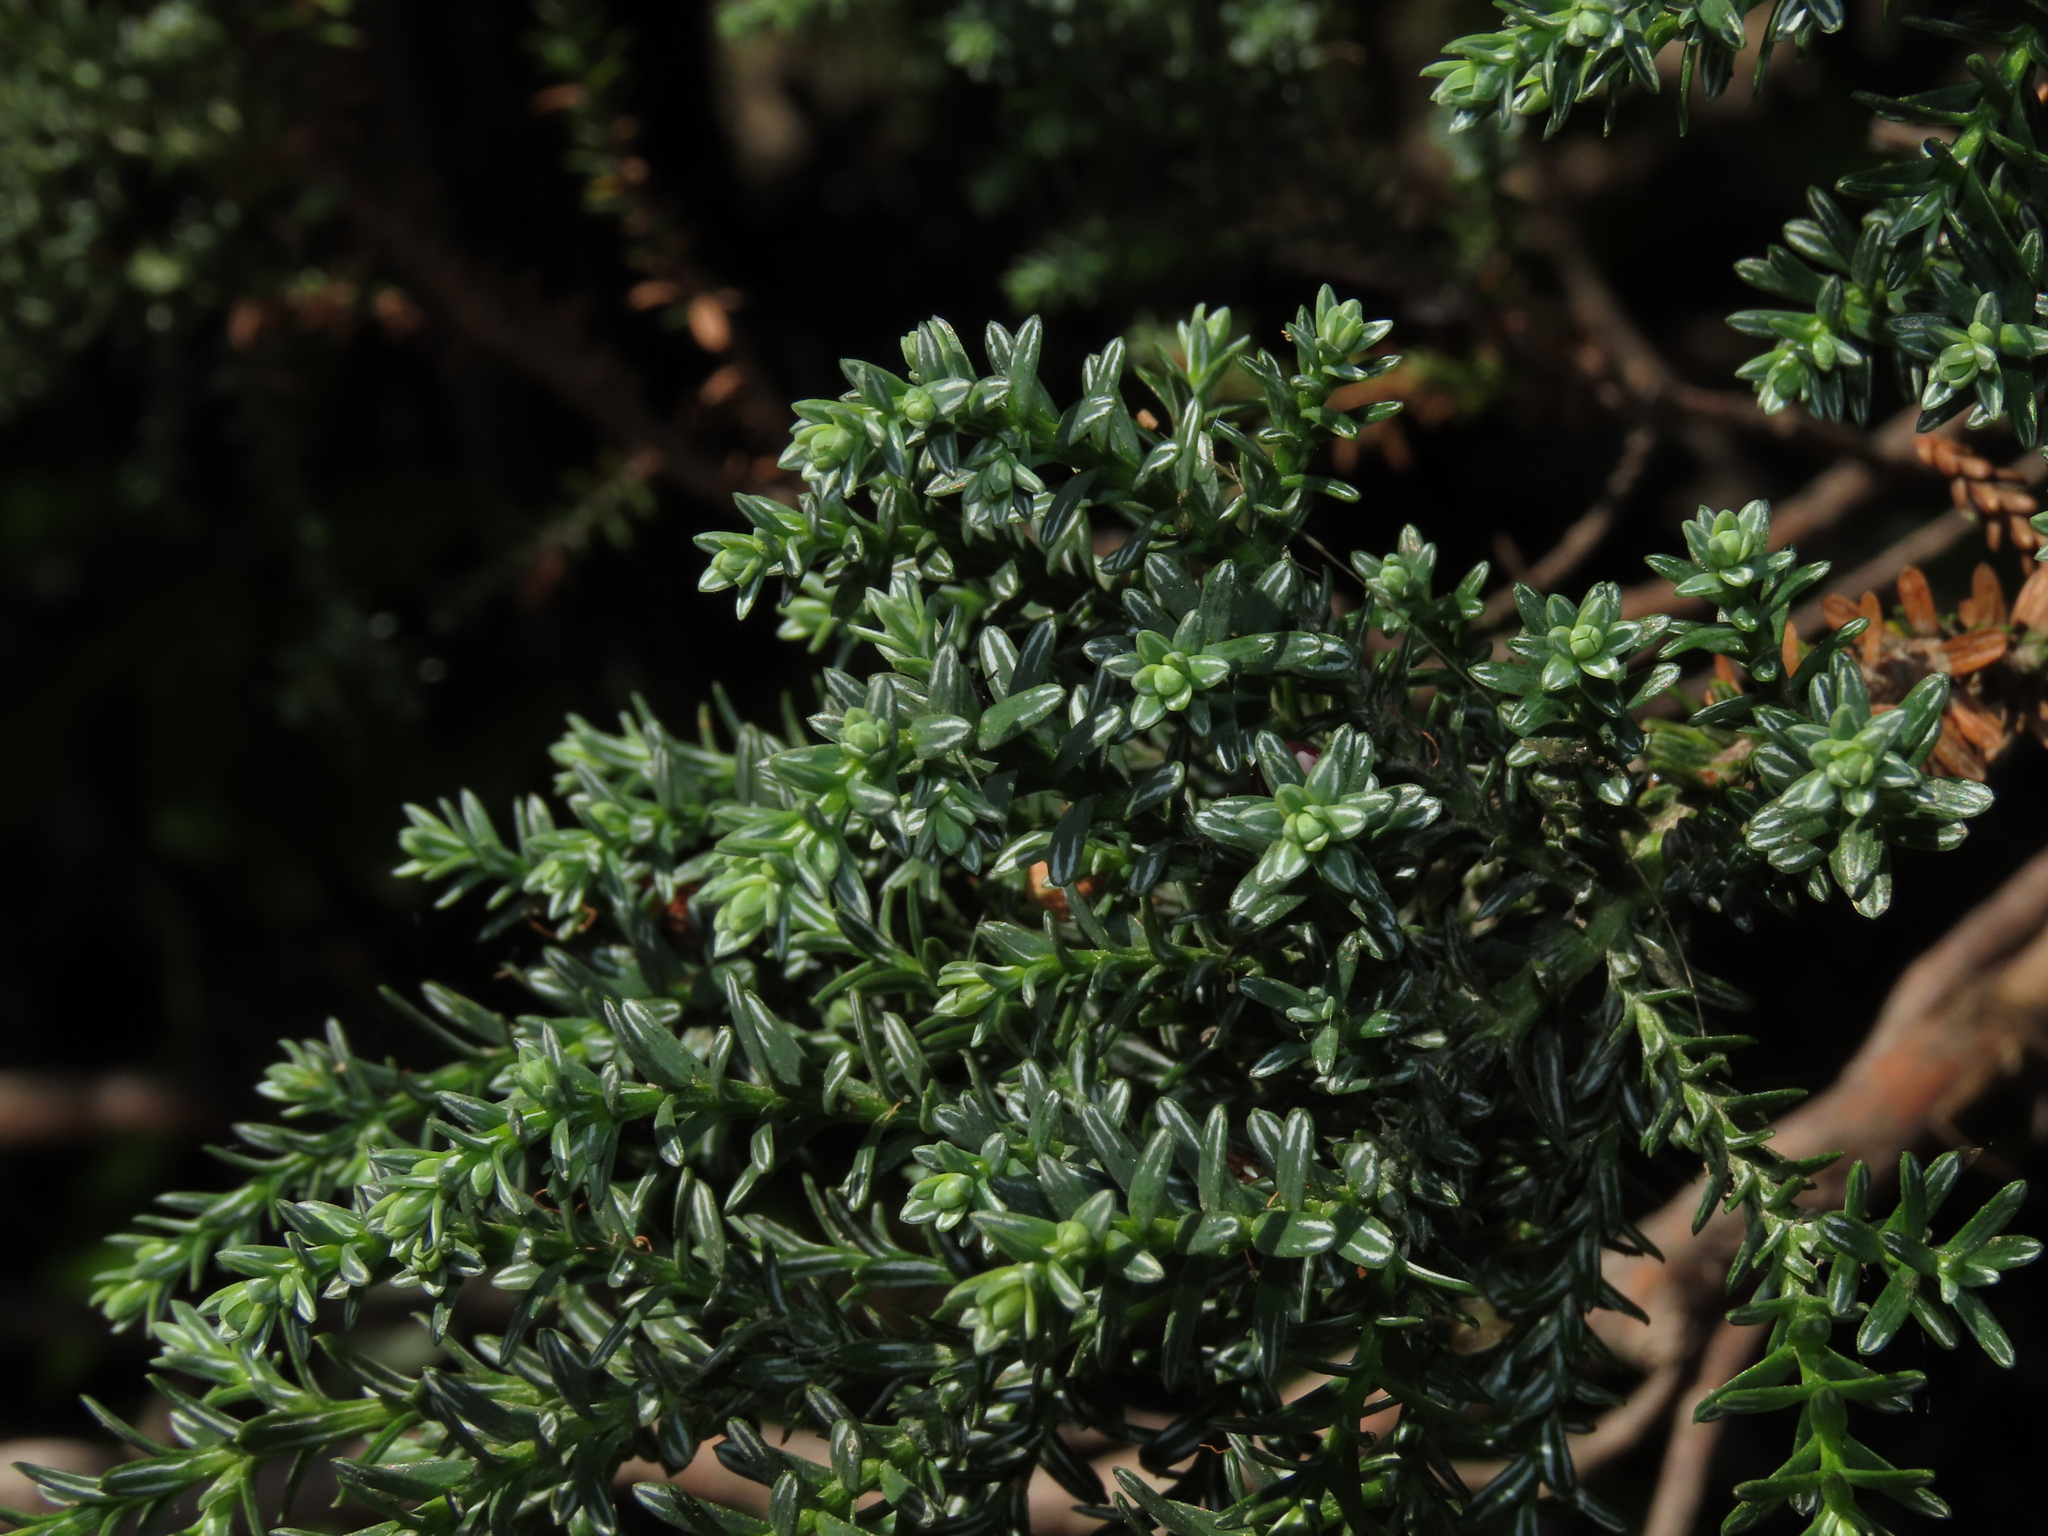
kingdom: Plantae
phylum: Tracheophyta
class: Pinopsida
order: Pinales
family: Cupressaceae
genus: Fitzroya
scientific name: Fitzroya cupressoides
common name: Patagonian cypress
